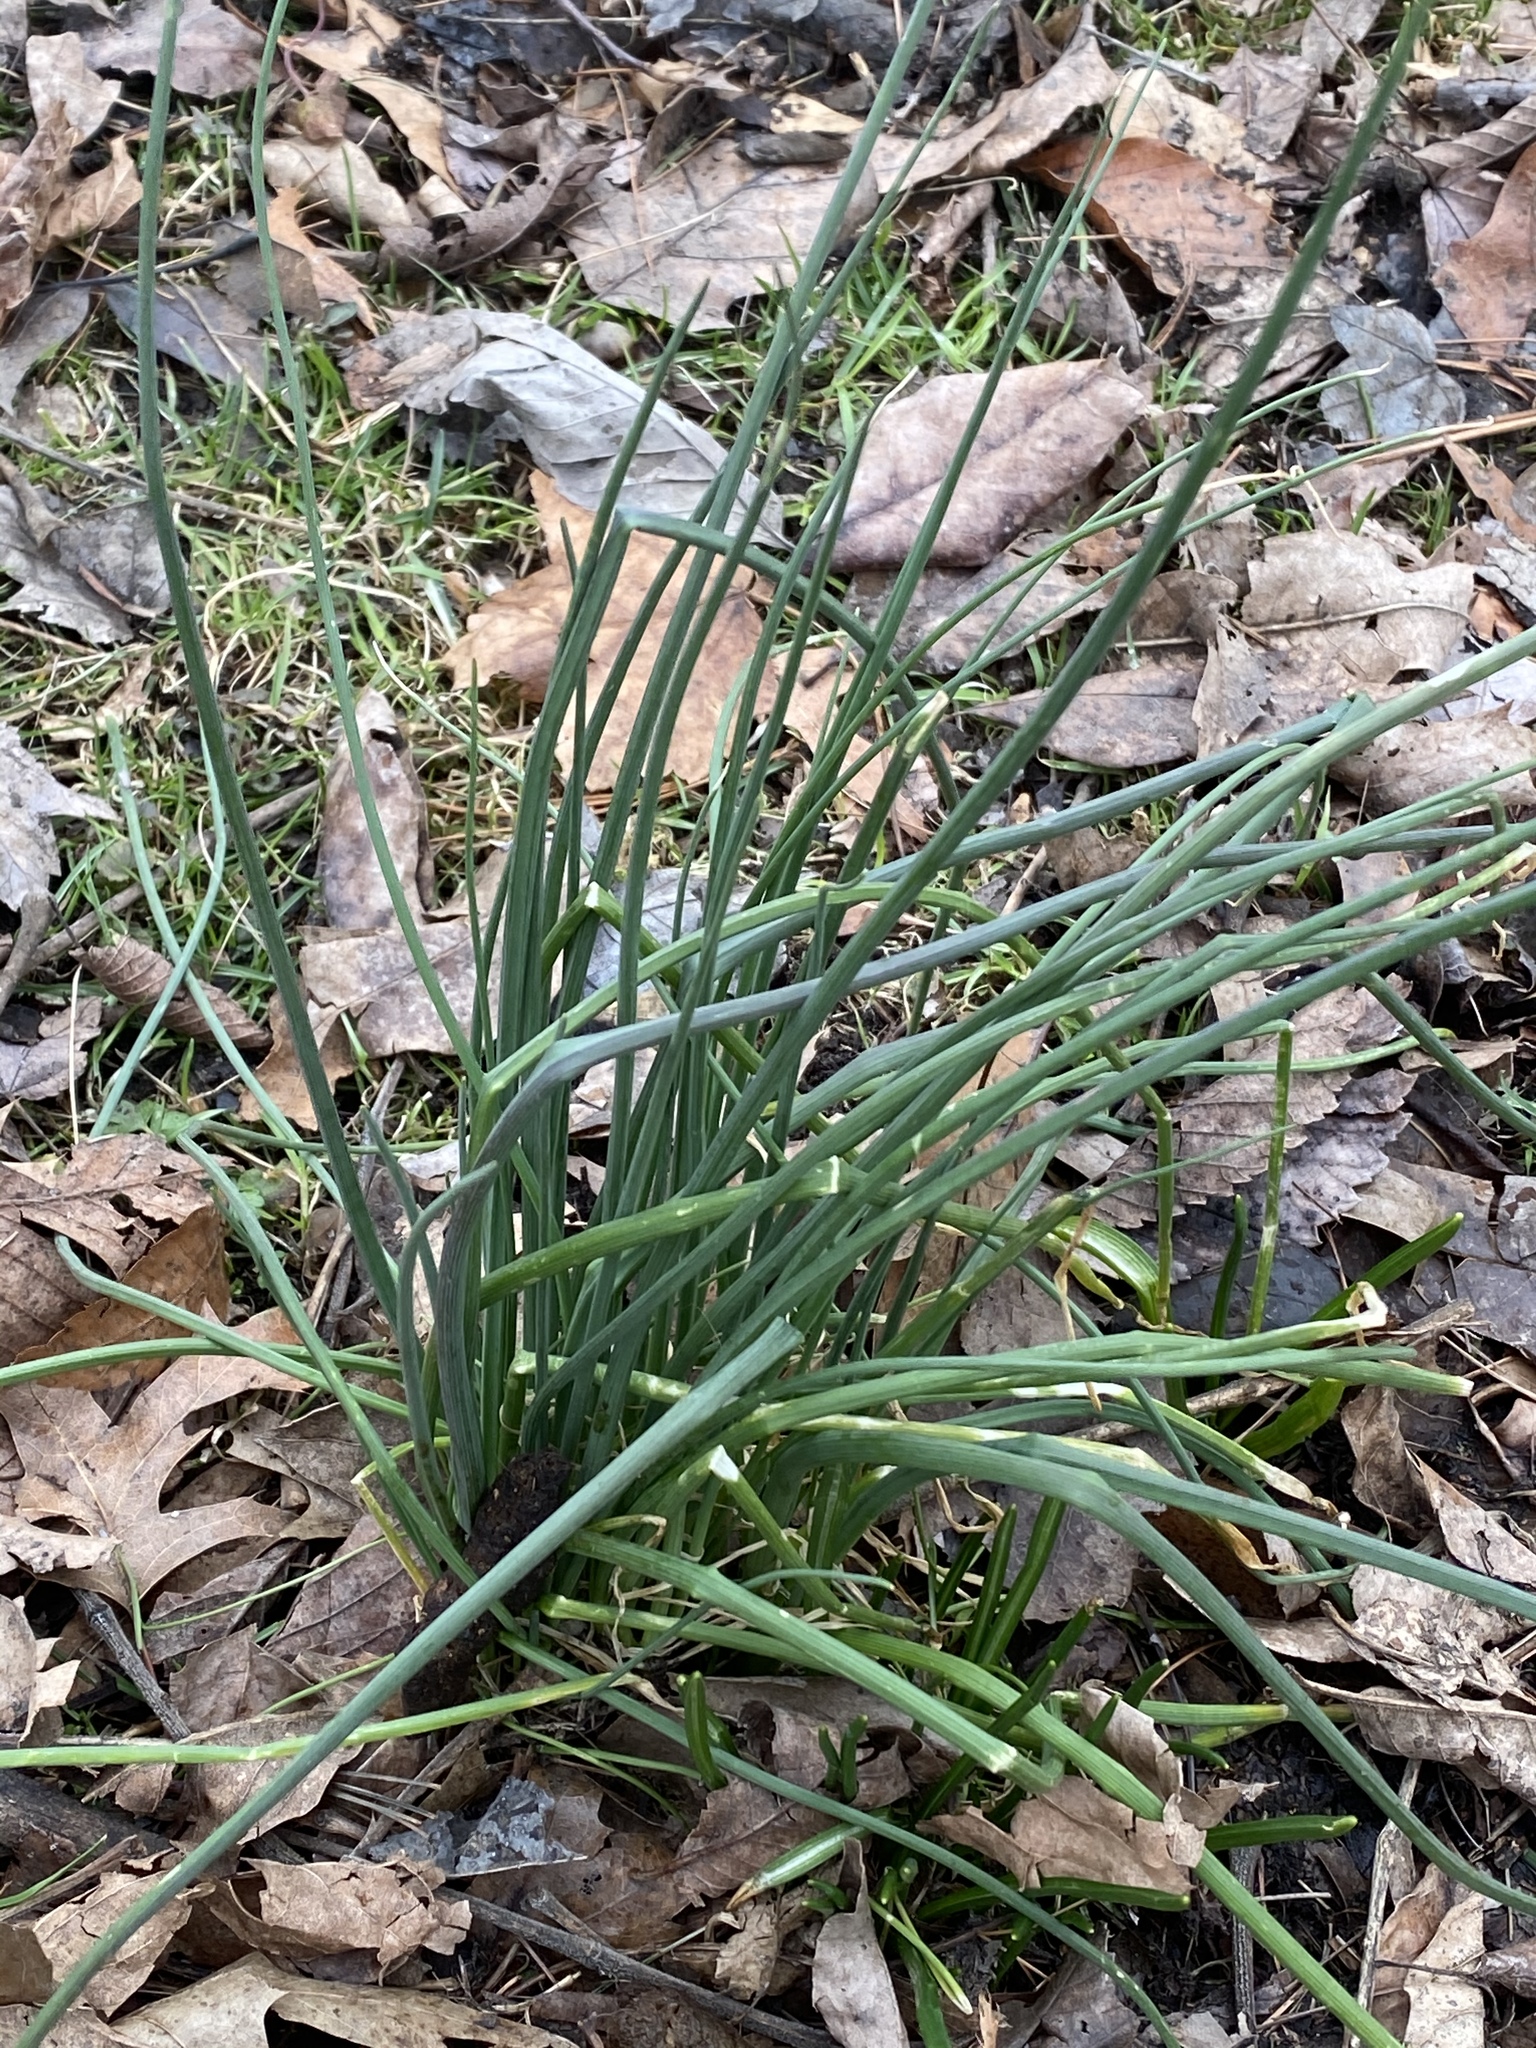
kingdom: Plantae
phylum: Tracheophyta
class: Liliopsida
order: Asparagales
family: Amaryllidaceae
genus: Allium
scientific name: Allium vineale
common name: Crow garlic
